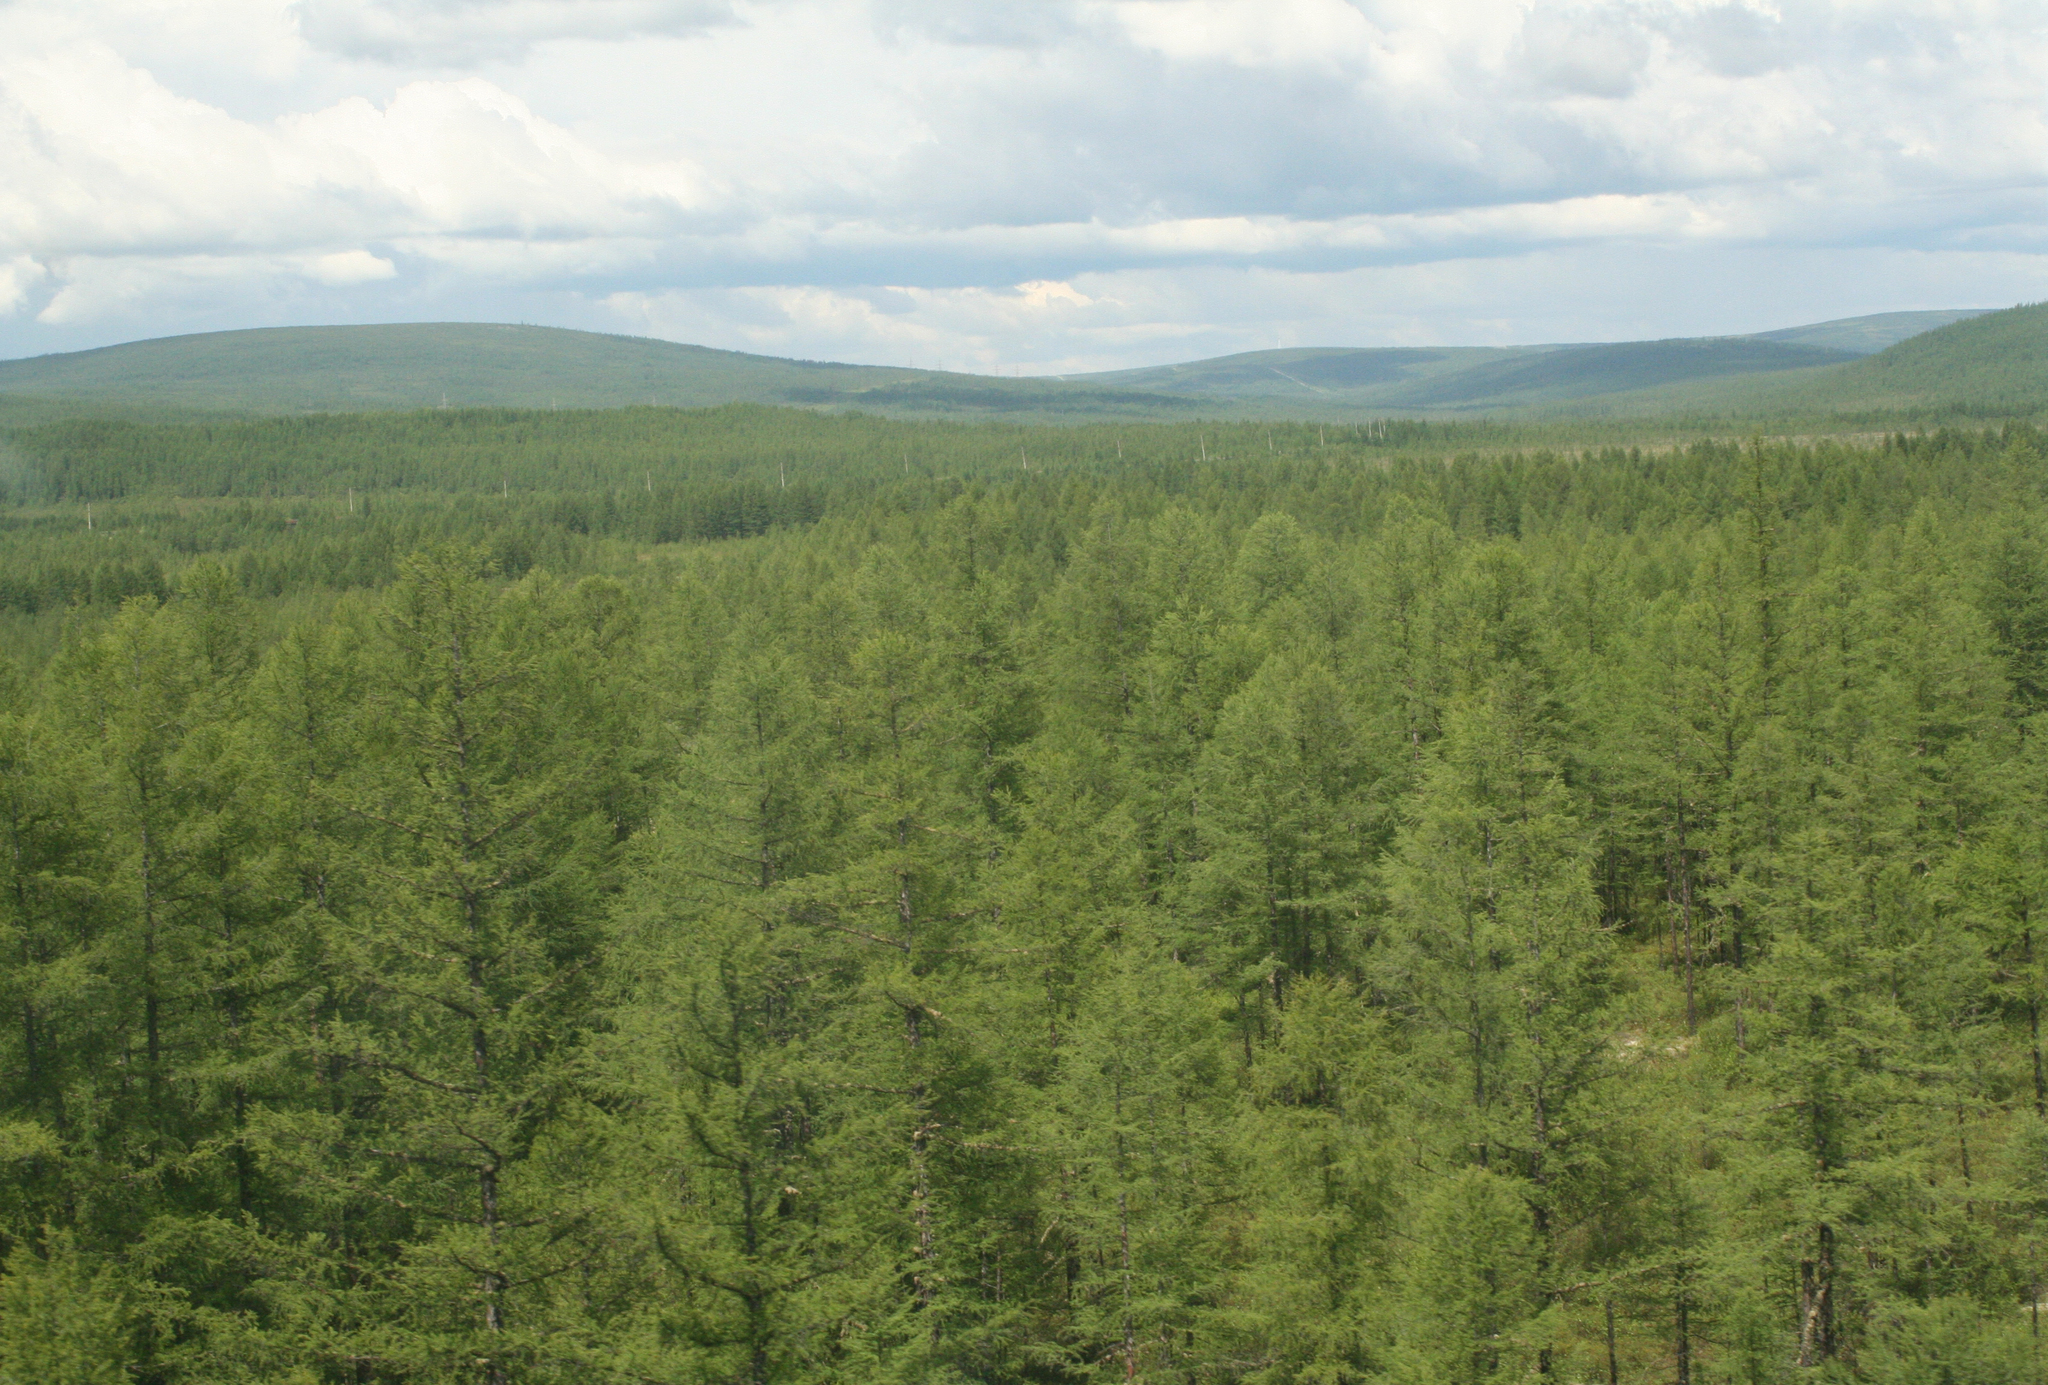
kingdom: Plantae
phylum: Tracheophyta
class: Pinopsida
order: Pinales
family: Pinaceae
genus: Larix
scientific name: Larix gmelinii
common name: Dahurian larch
